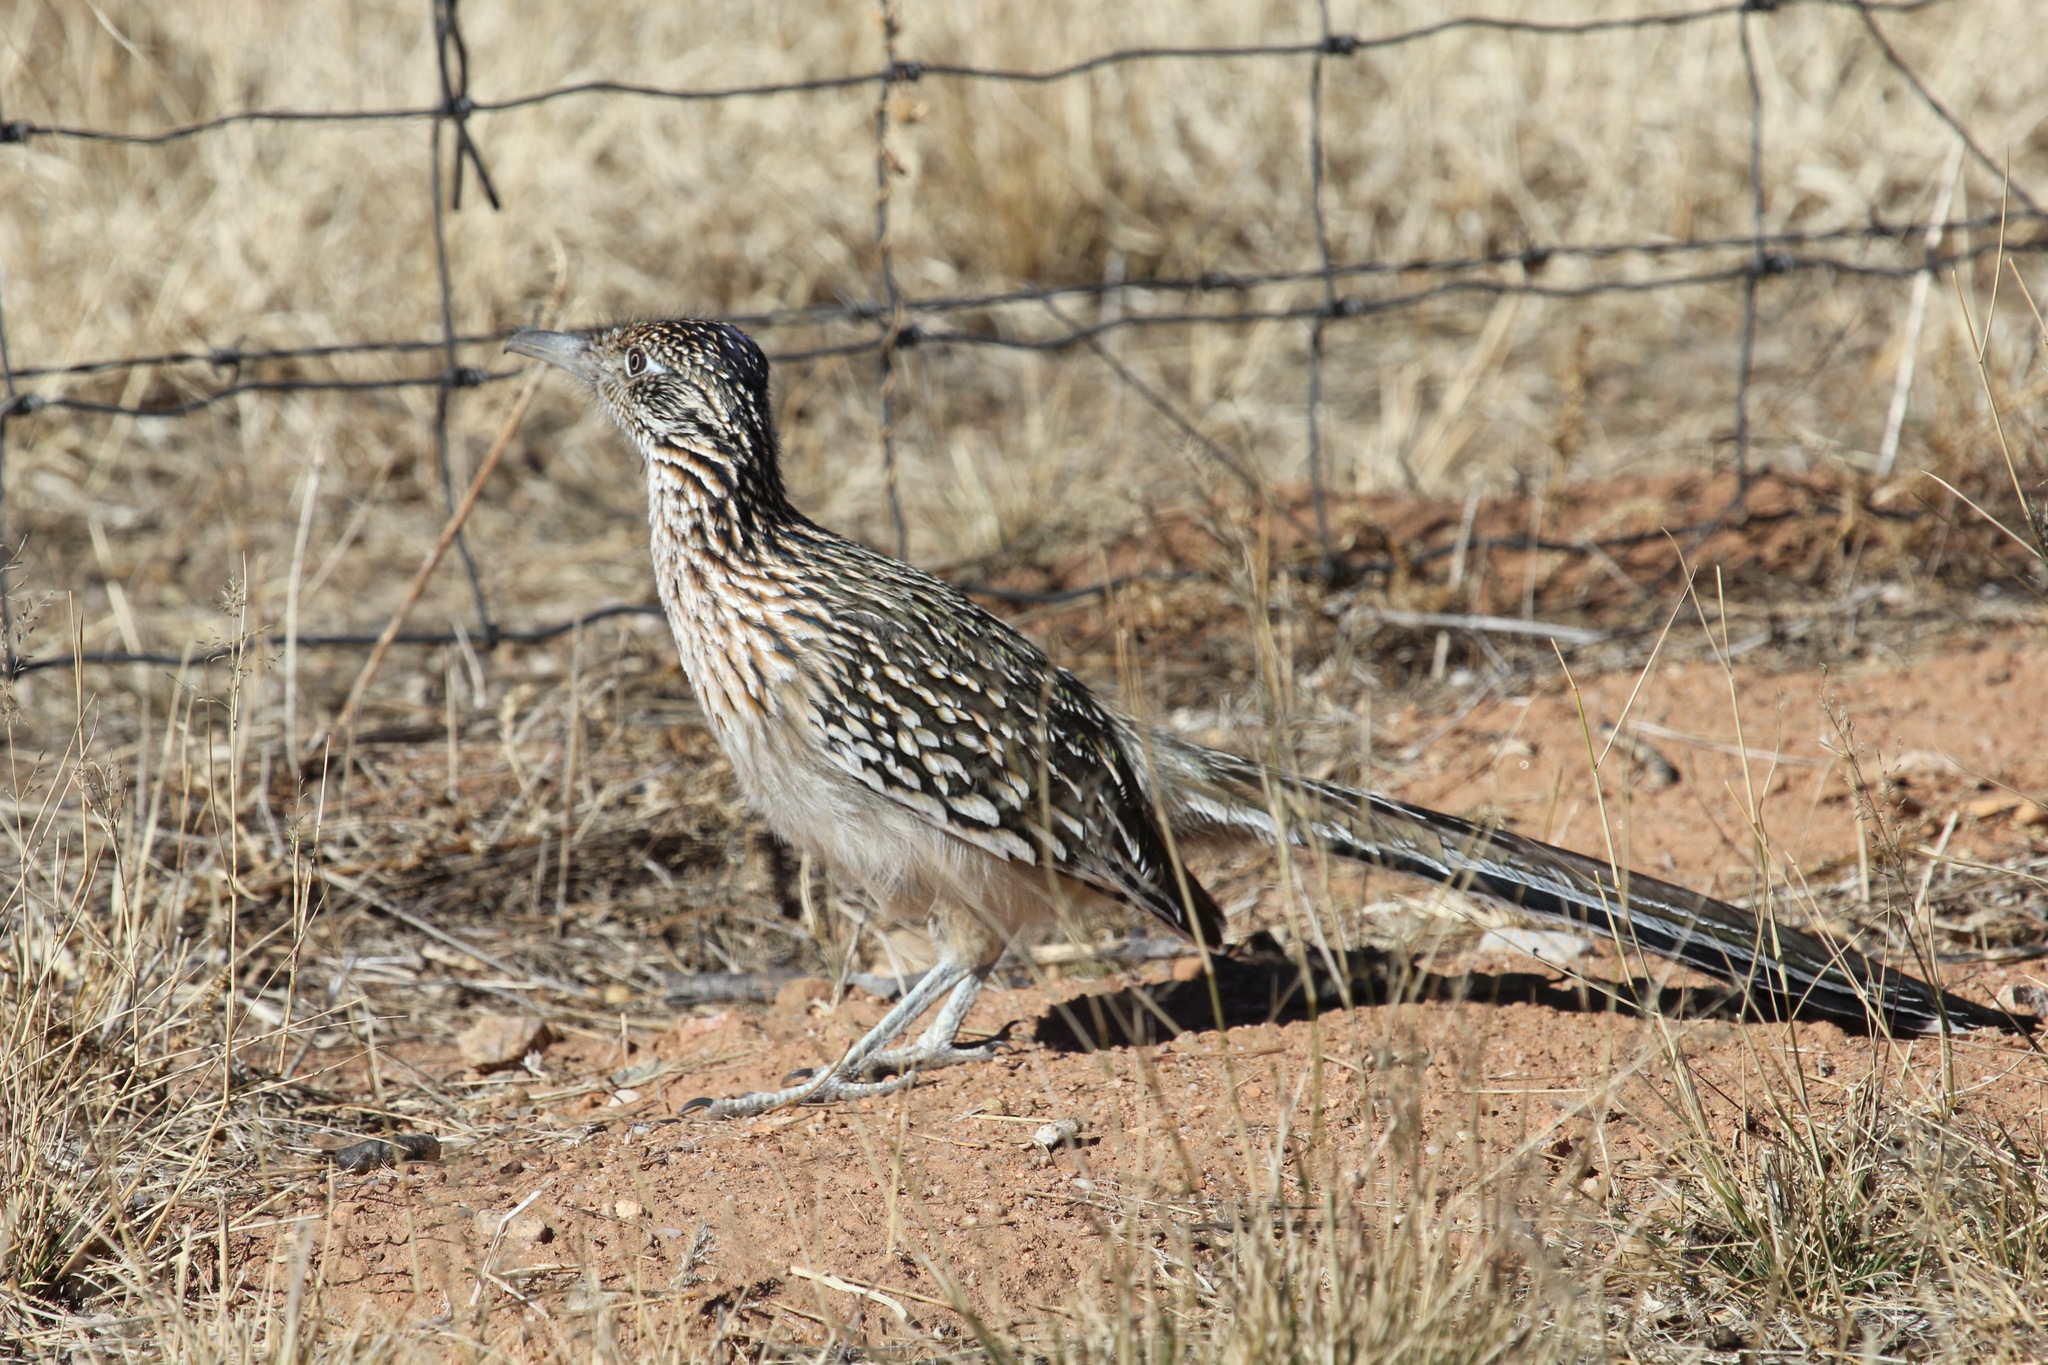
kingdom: Animalia
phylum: Chordata
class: Aves
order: Cuculiformes
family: Cuculidae
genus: Geococcyx
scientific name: Geococcyx californianus
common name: Greater roadrunner
